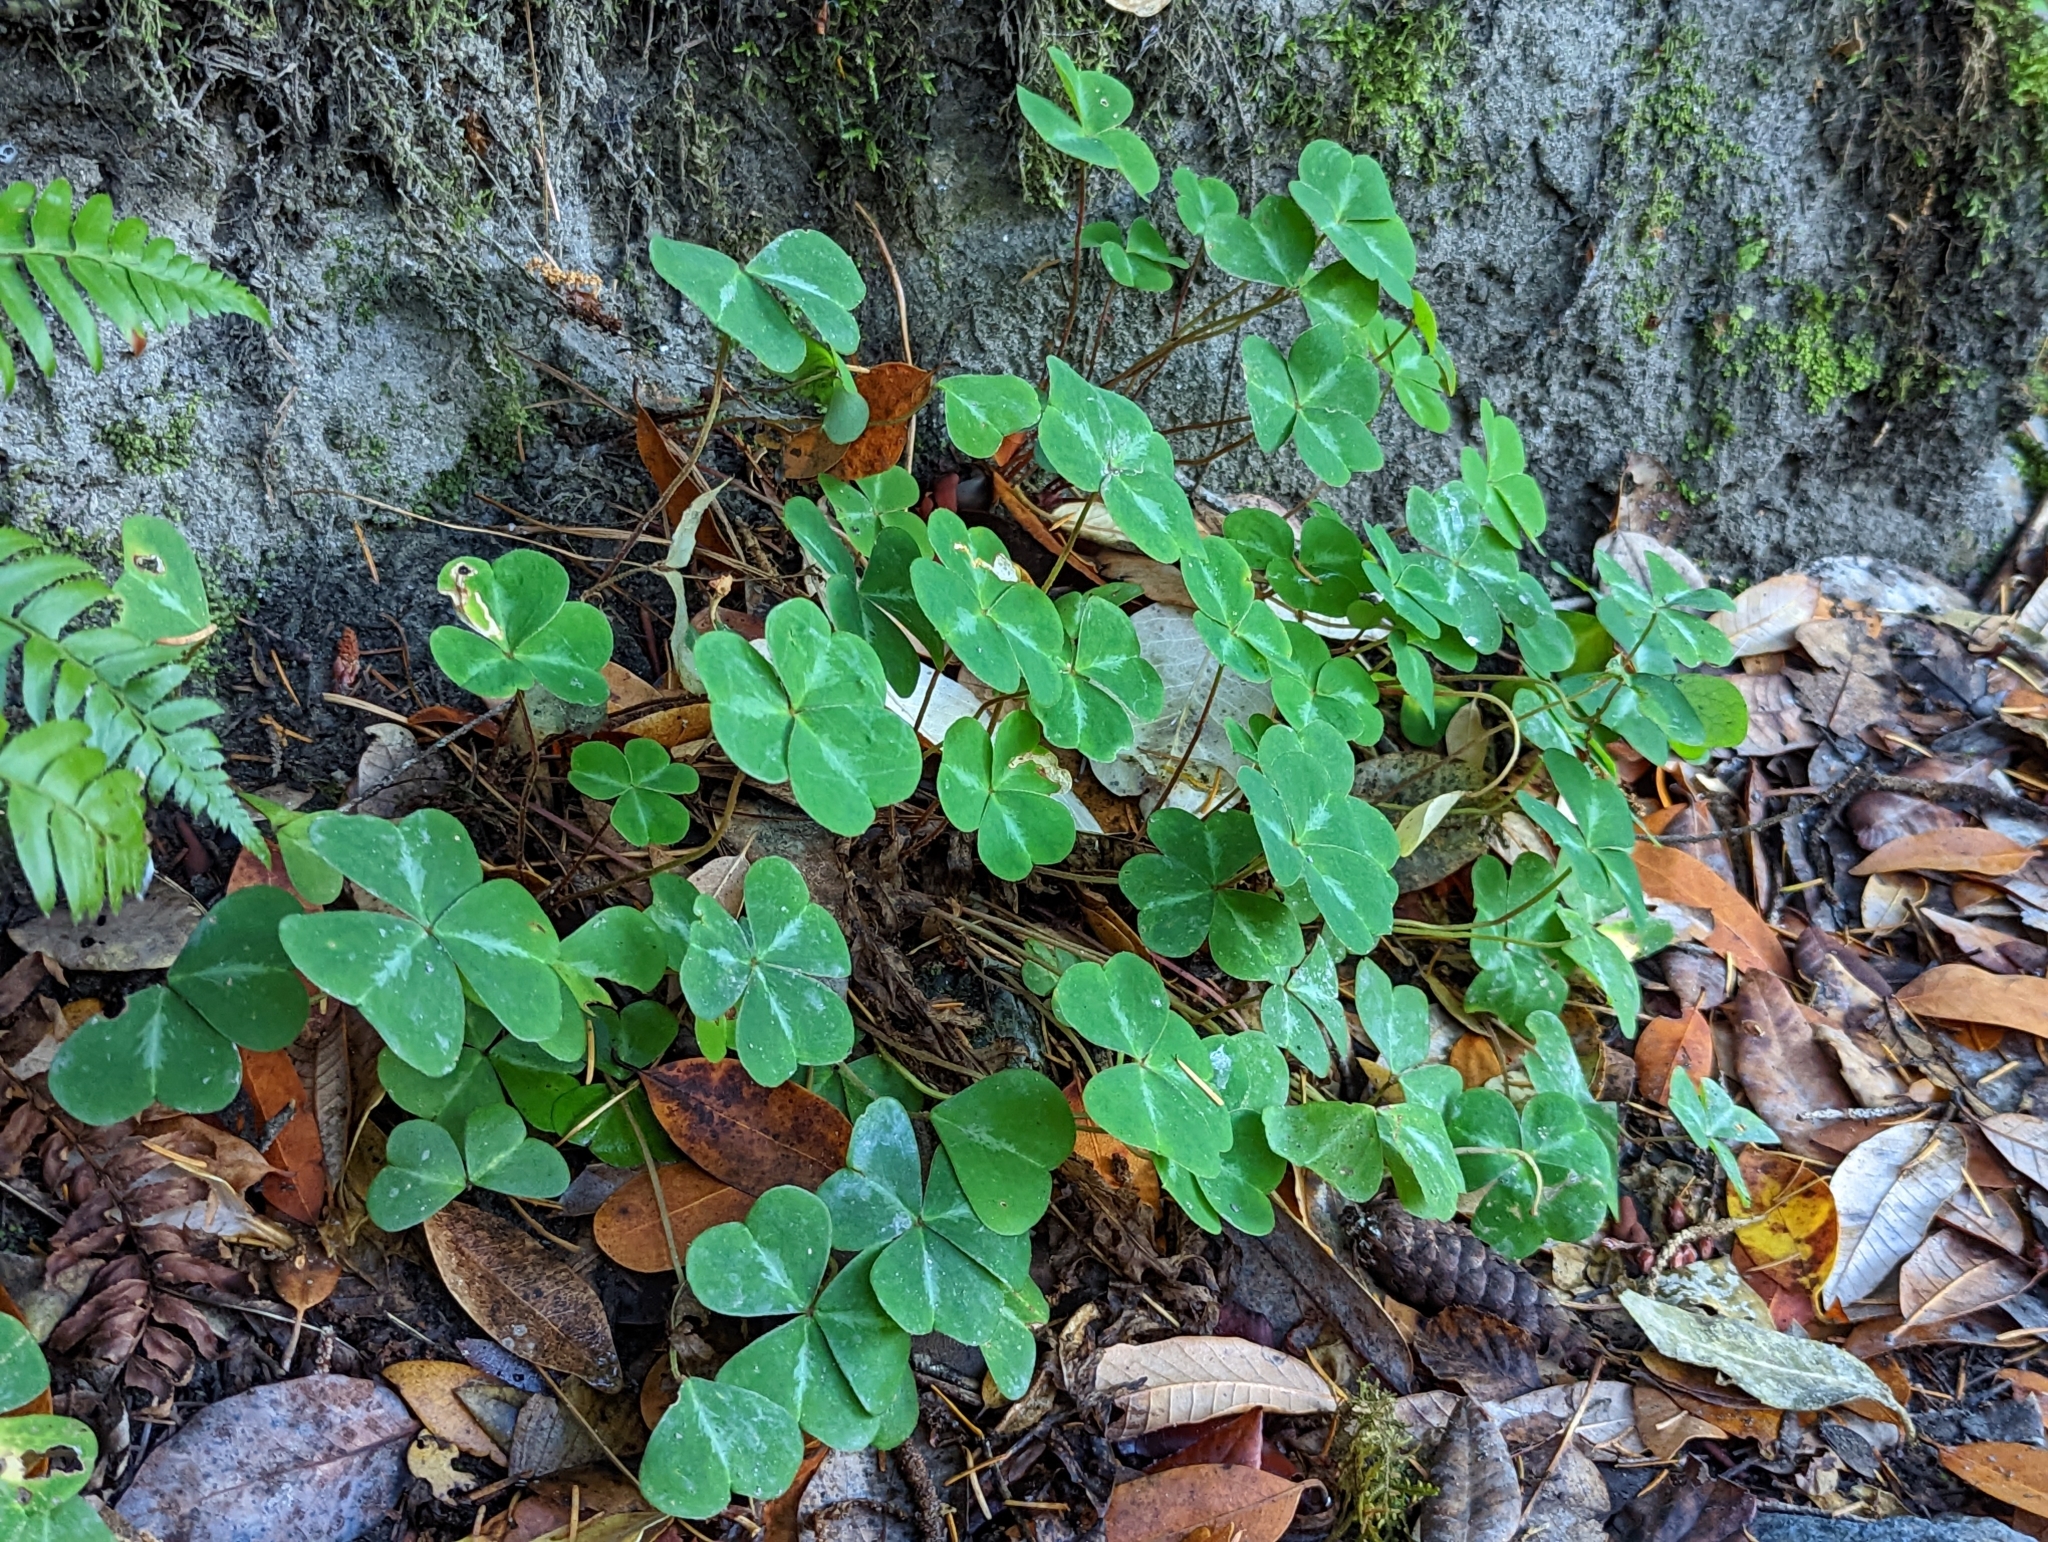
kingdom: Plantae
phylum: Tracheophyta
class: Magnoliopsida
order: Oxalidales
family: Oxalidaceae
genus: Oxalis
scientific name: Oxalis oregana
